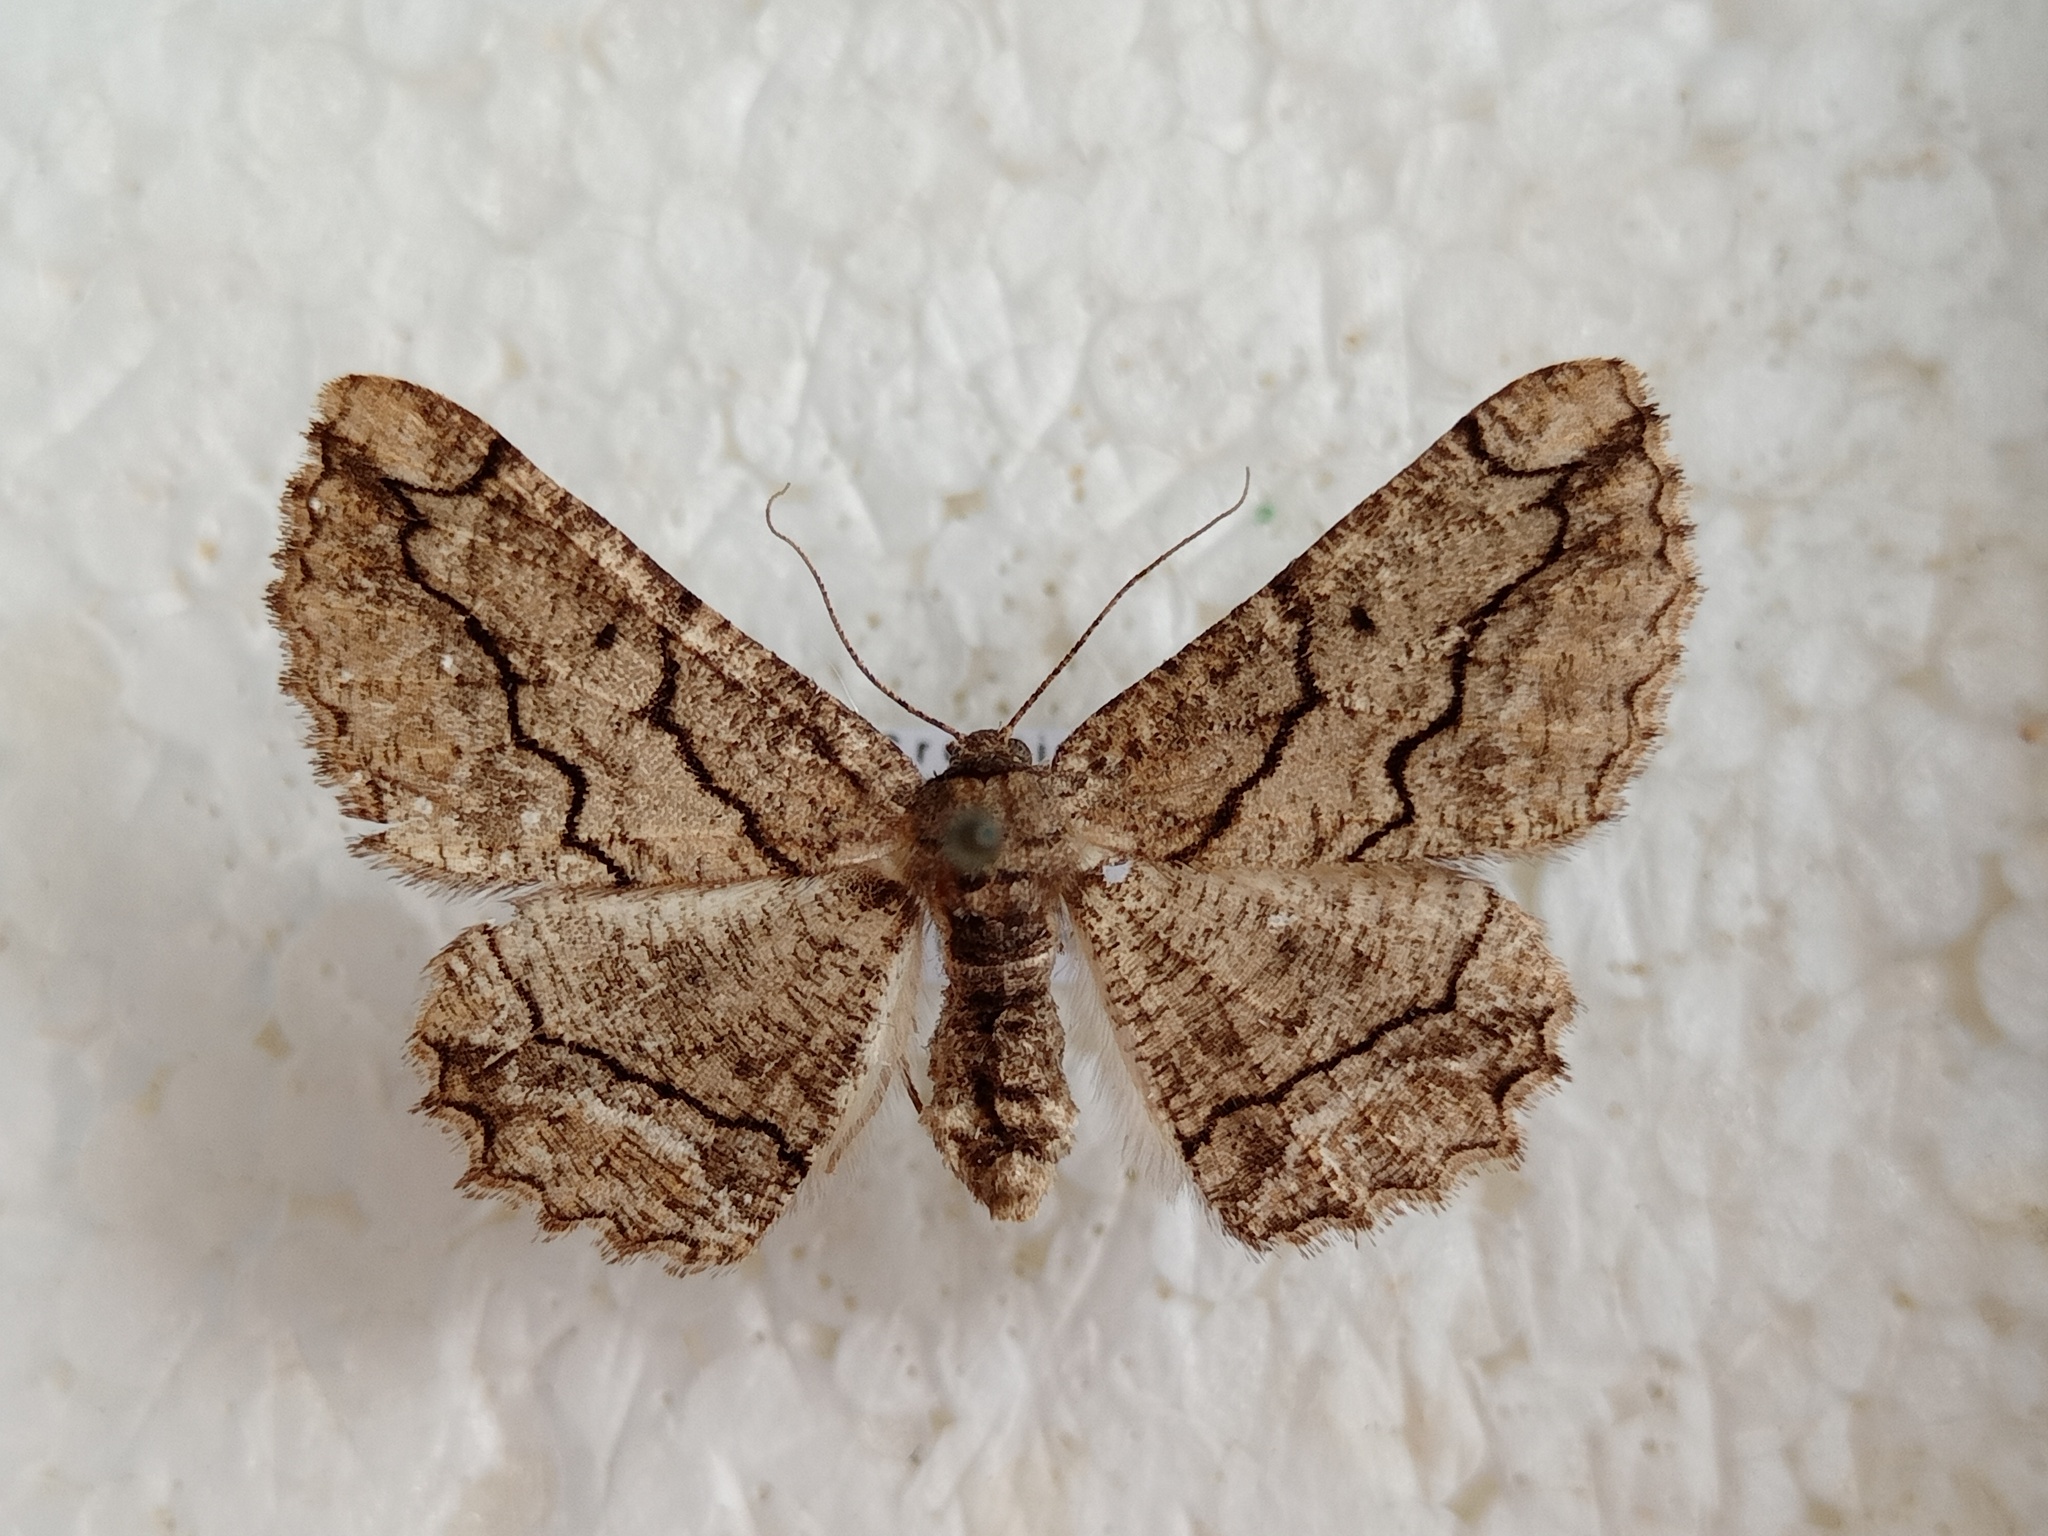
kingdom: Animalia
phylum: Arthropoda
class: Insecta
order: Lepidoptera
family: Geometridae
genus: Menophra
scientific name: Menophra japygiaria
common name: Brassy waved umber
